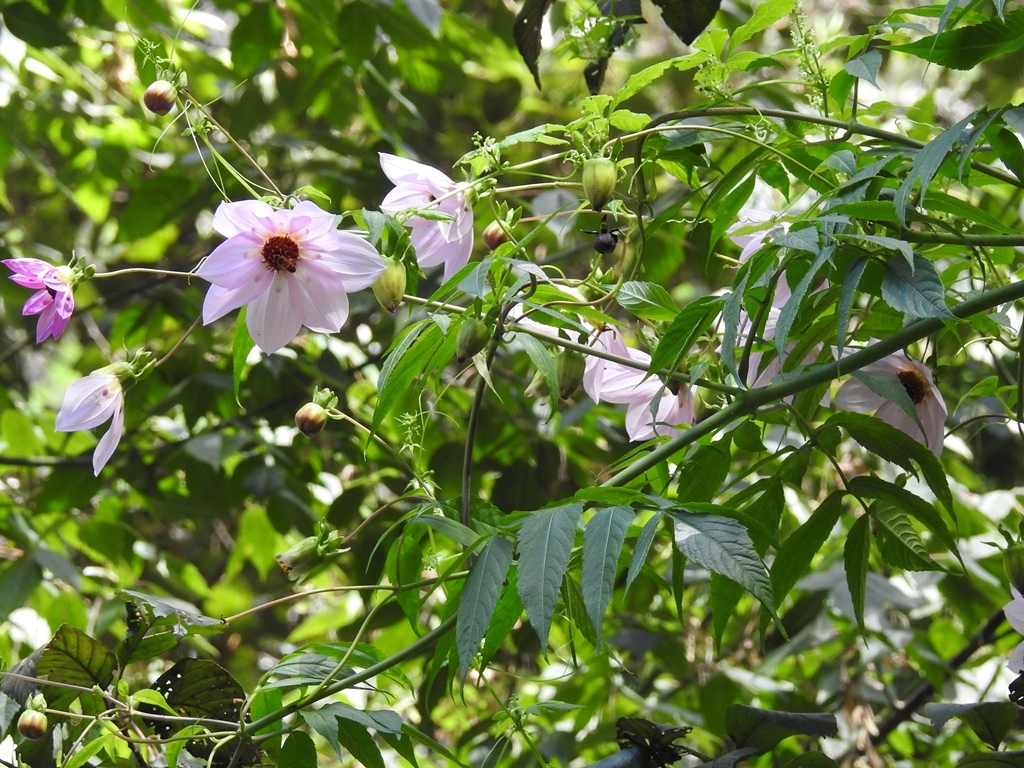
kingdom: Plantae
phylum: Tracheophyta
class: Magnoliopsida
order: Asterales
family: Asteraceae
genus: Dahlia
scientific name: Dahlia imperialis
